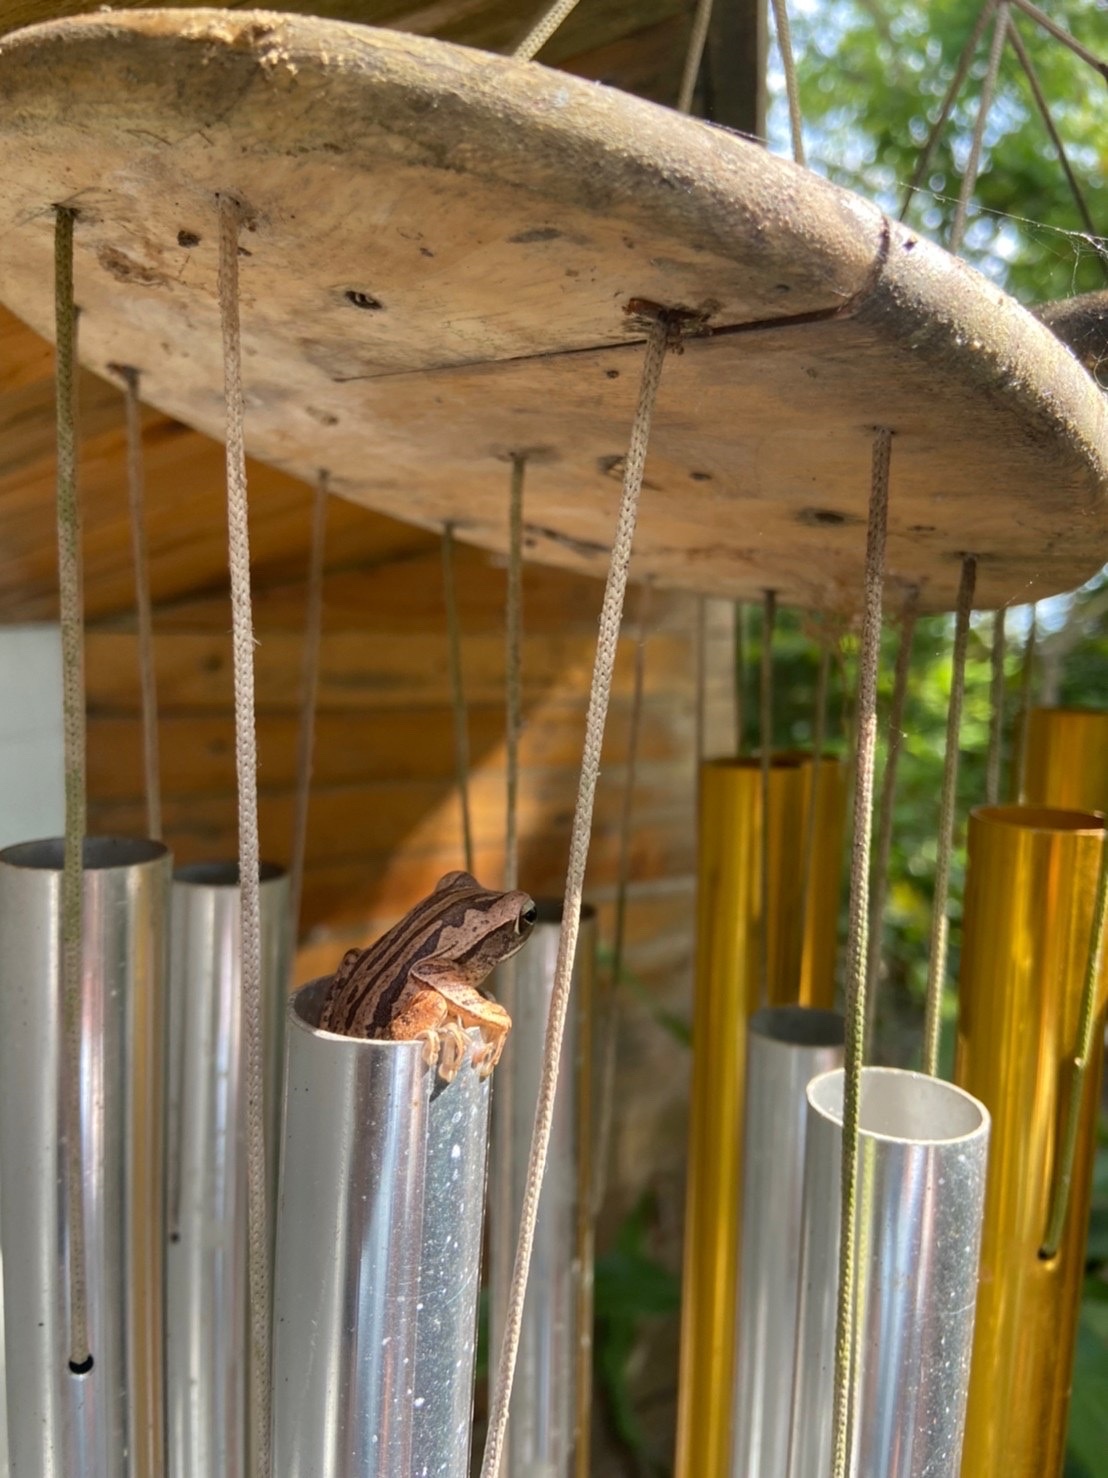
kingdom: Animalia
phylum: Chordata
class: Amphibia
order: Anura
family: Rhacophoridae
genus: Polypedates
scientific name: Polypedates leucomystax
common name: Common tree frog/four-lined tree frog
